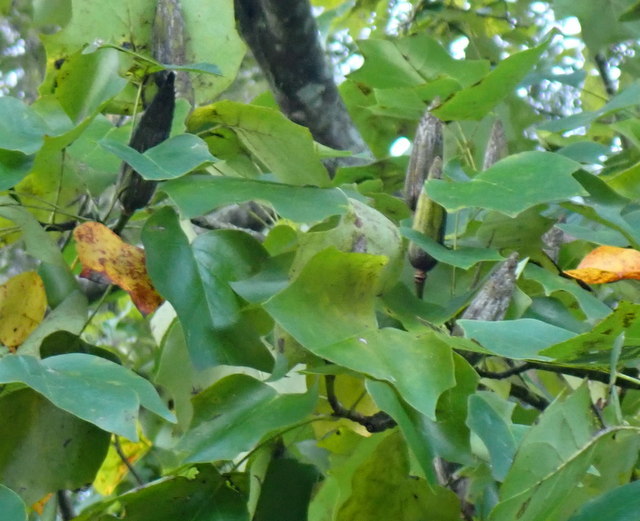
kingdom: Plantae
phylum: Tracheophyta
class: Magnoliopsida
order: Magnoliales
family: Magnoliaceae
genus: Liriodendron
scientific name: Liriodendron tulipifera
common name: Tulip tree
